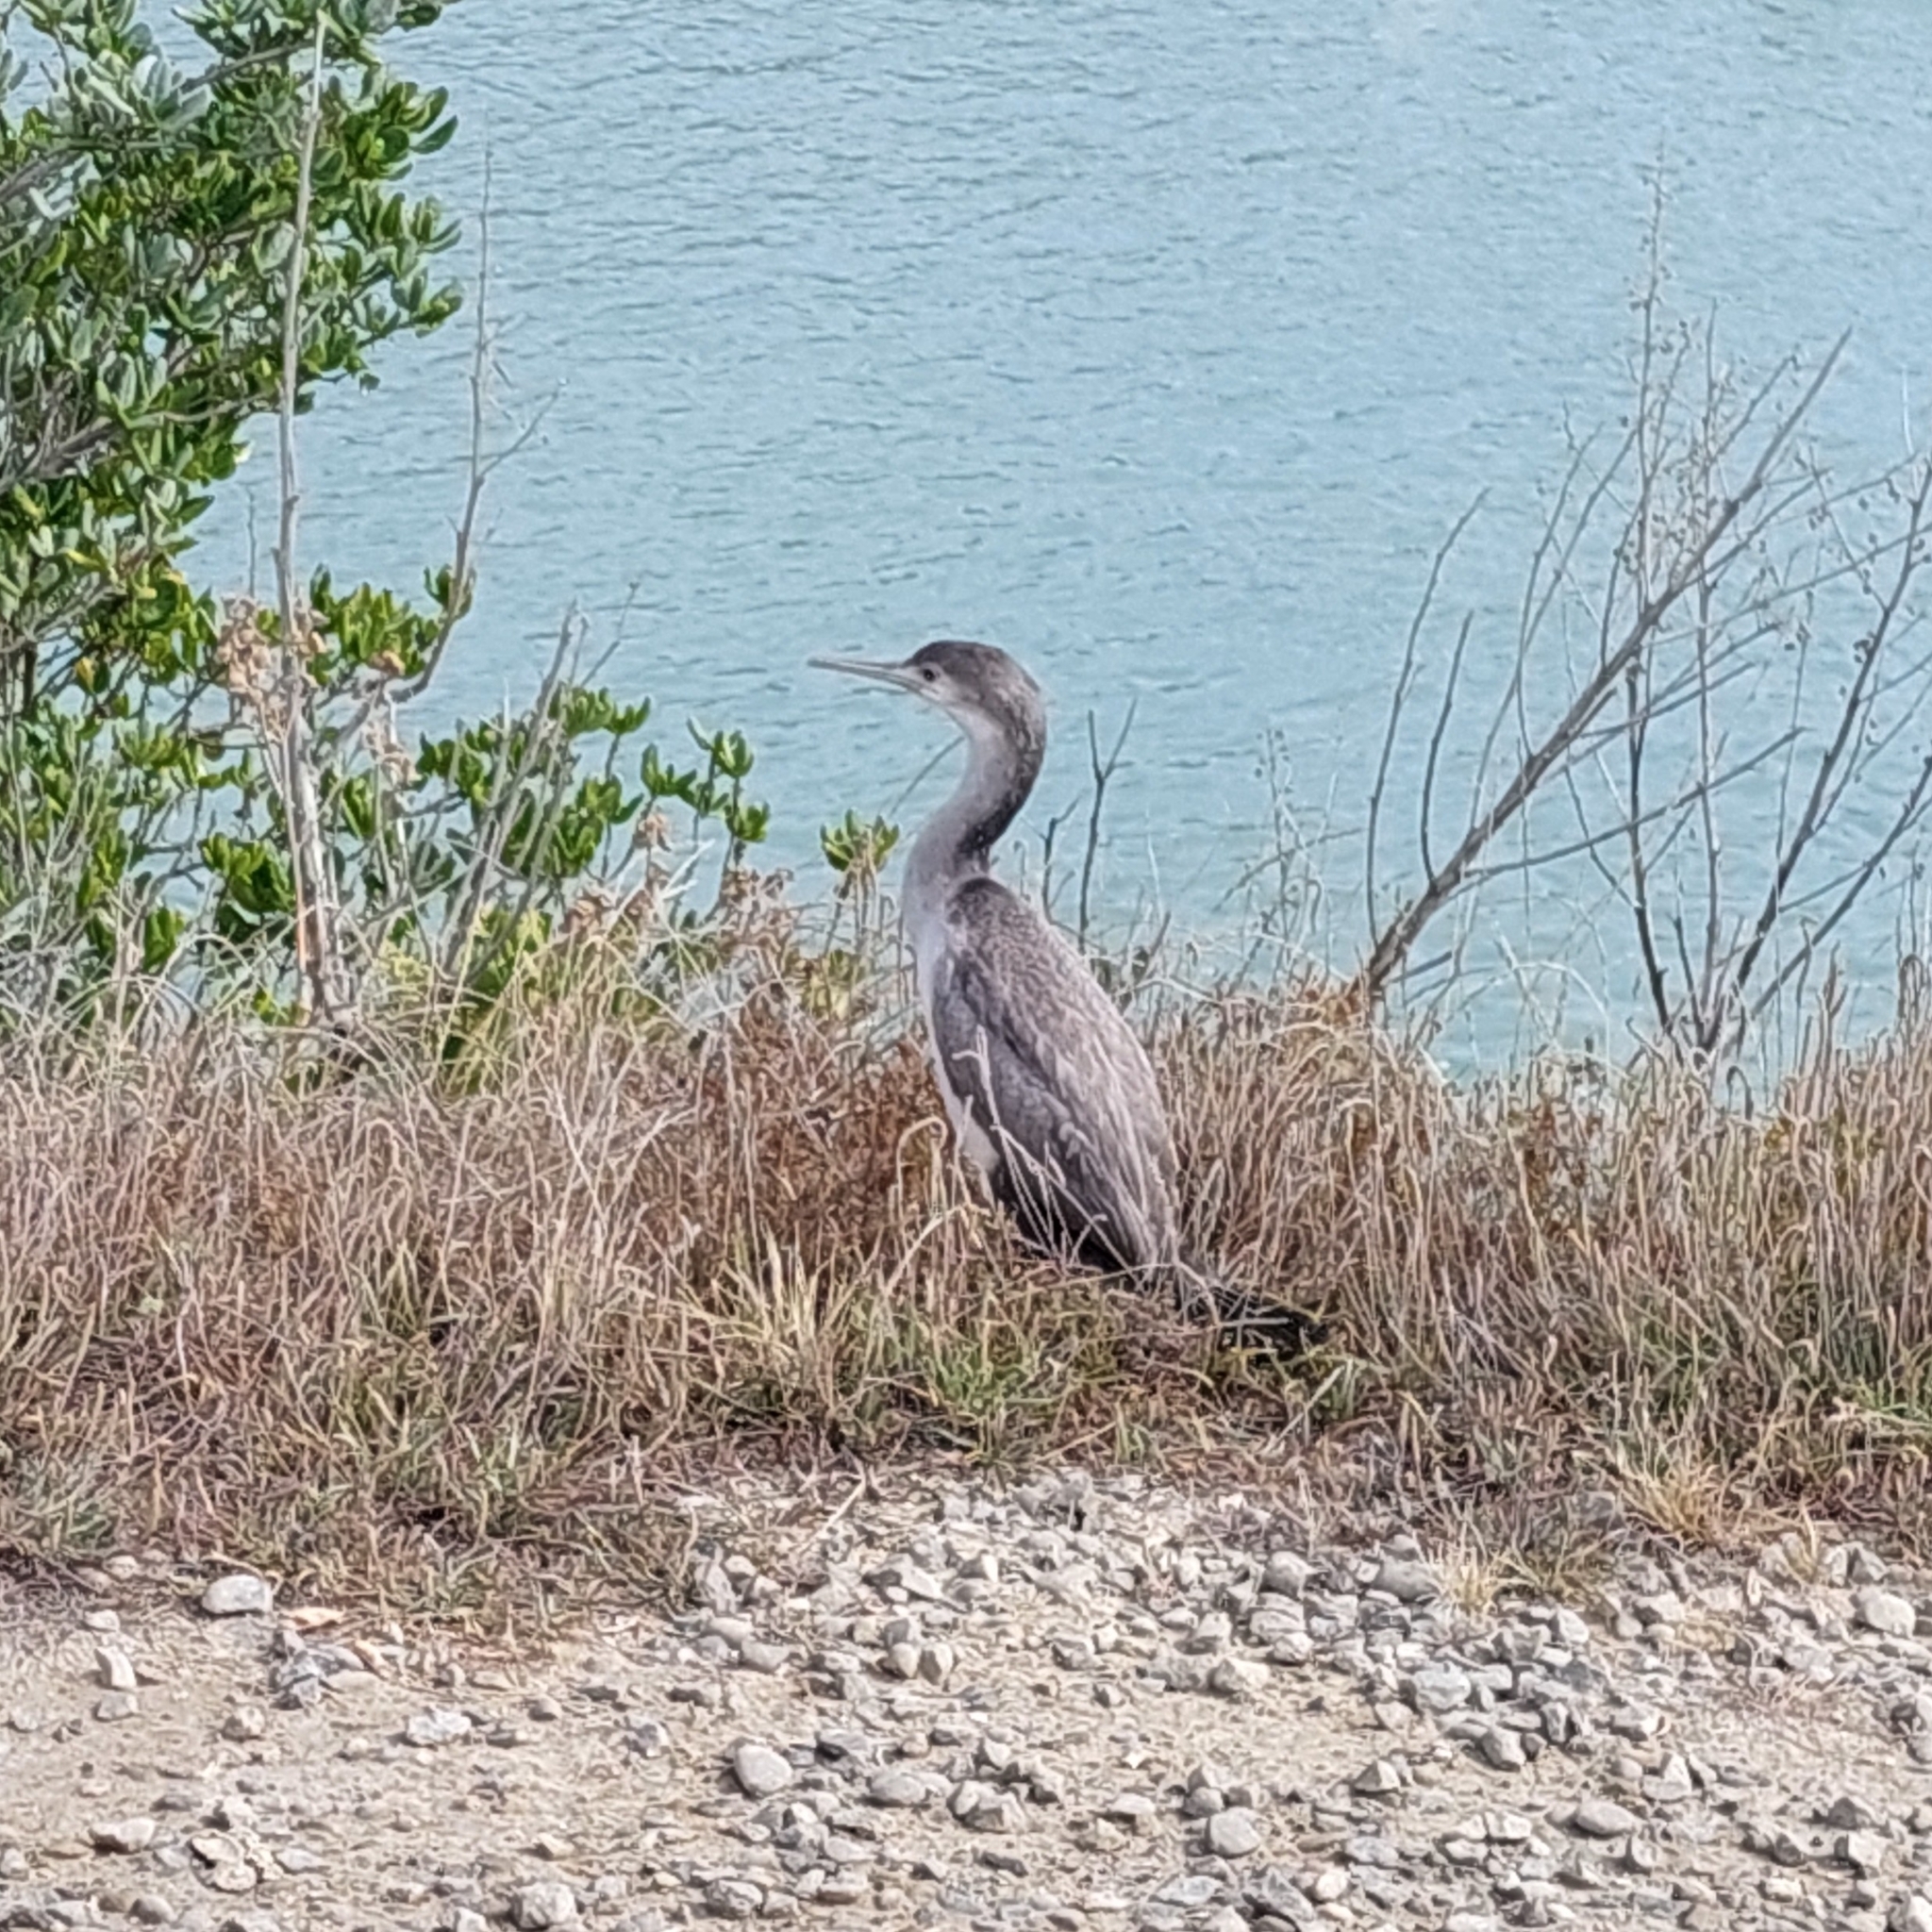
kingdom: Animalia
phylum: Chordata
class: Aves
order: Suliformes
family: Phalacrocoracidae
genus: Phalacrocorax
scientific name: Phalacrocorax punctatus
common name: Spotted shag
